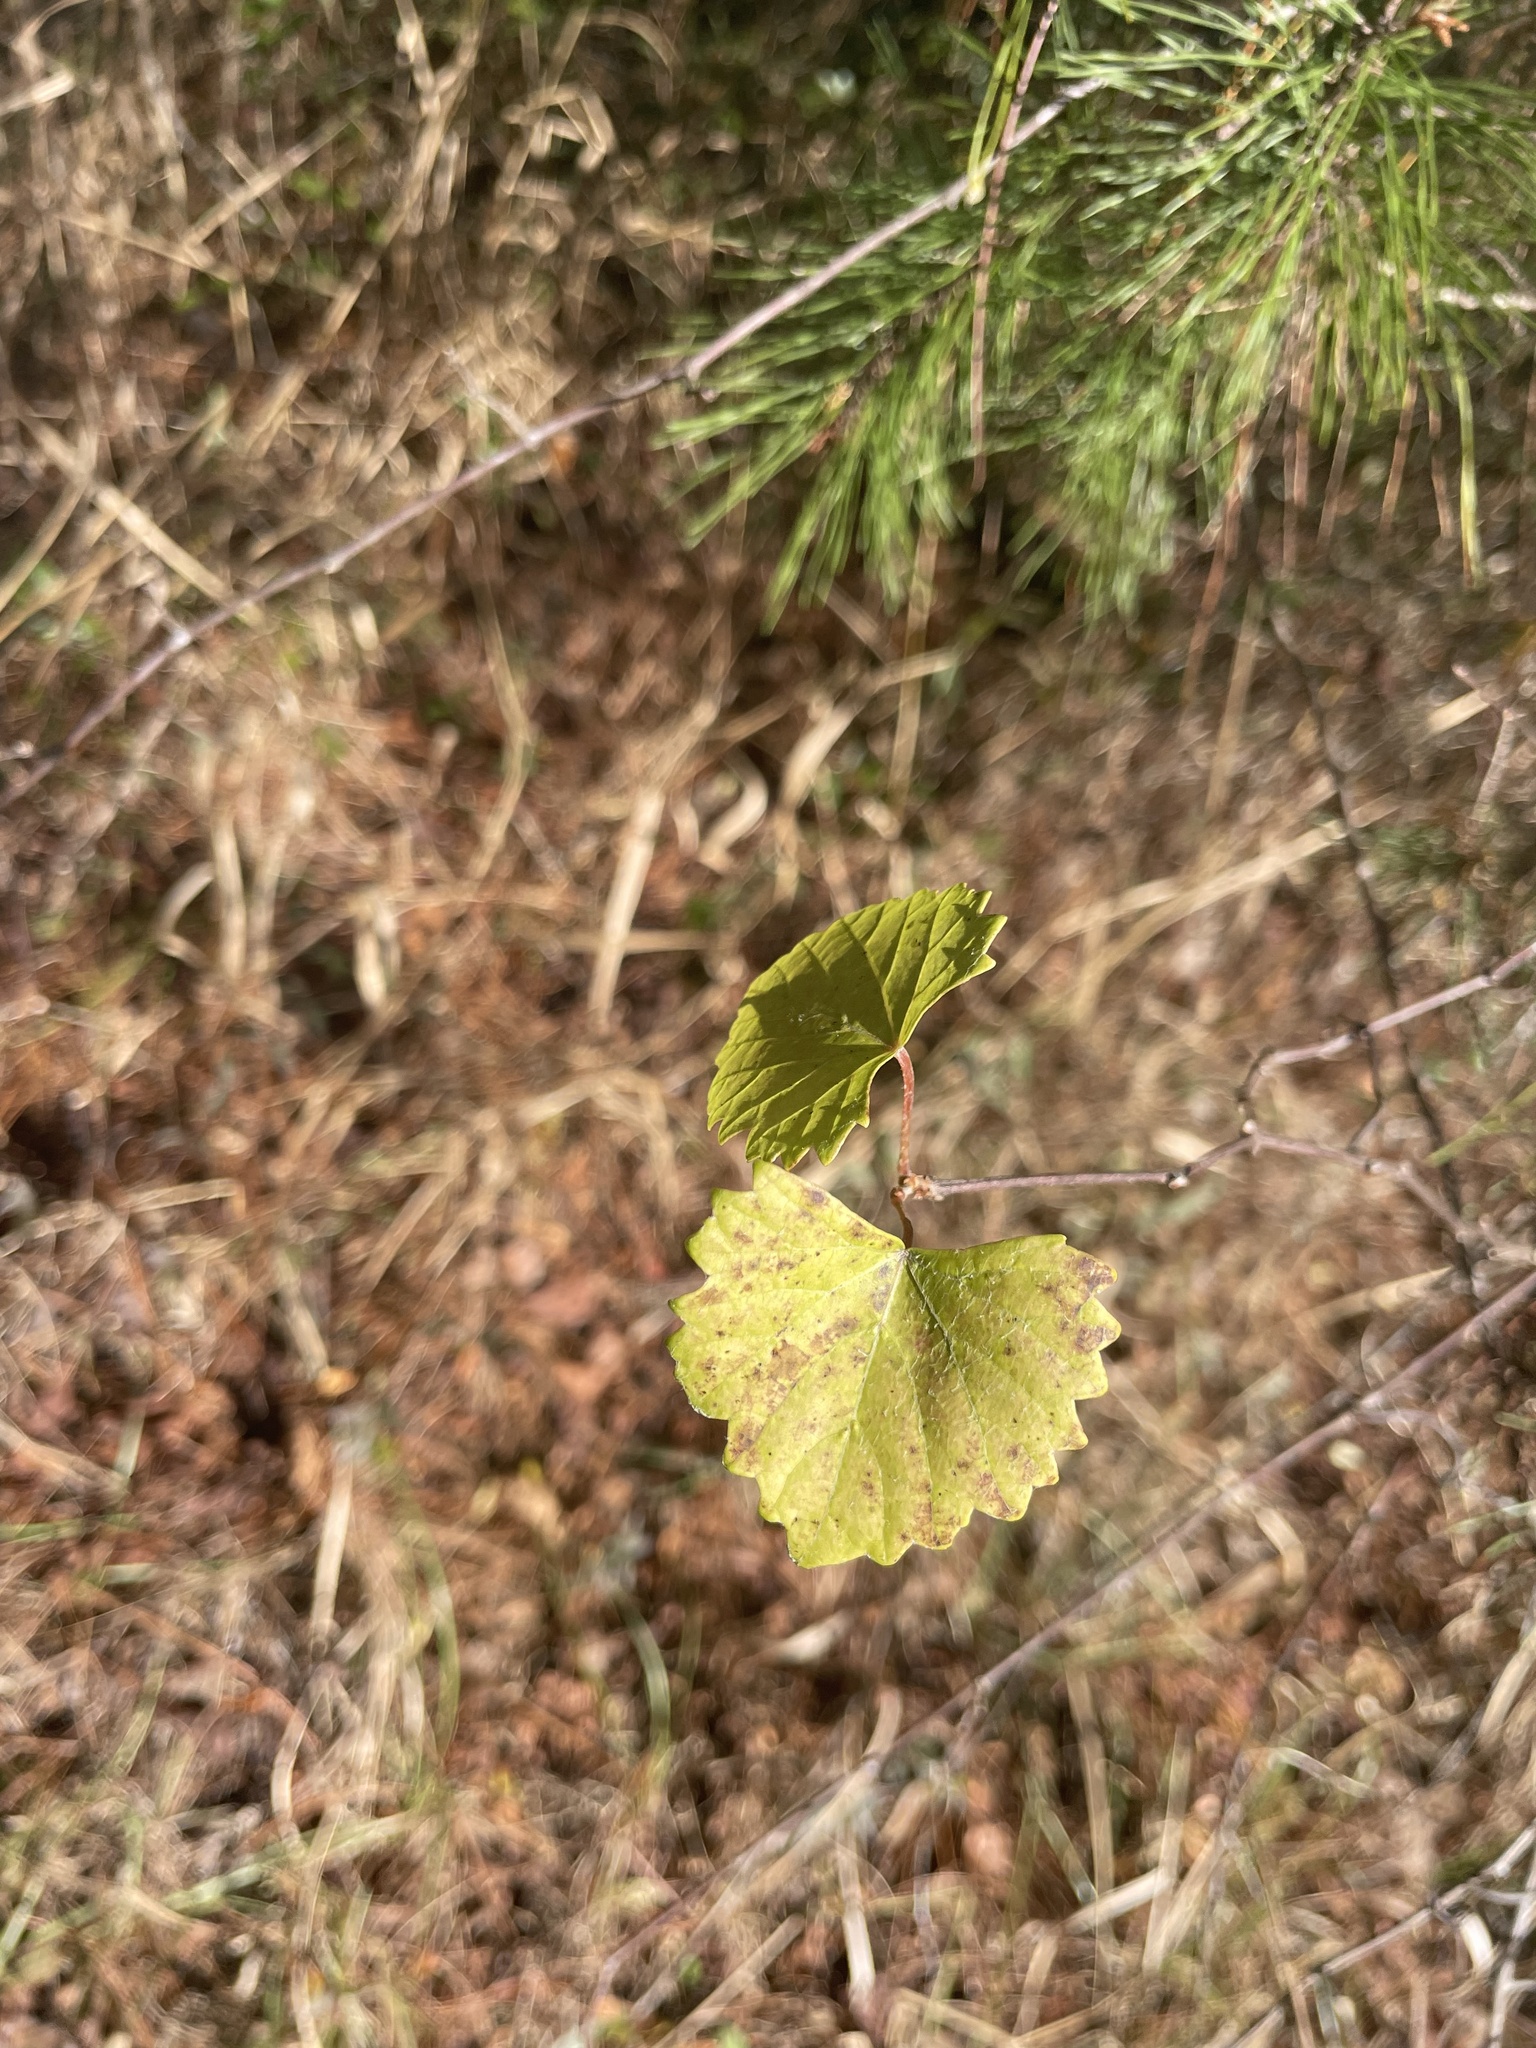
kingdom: Plantae
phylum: Tracheophyta
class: Magnoliopsida
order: Vitales
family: Vitaceae
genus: Vitis
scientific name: Vitis rotundifolia
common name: Muscadine grape
